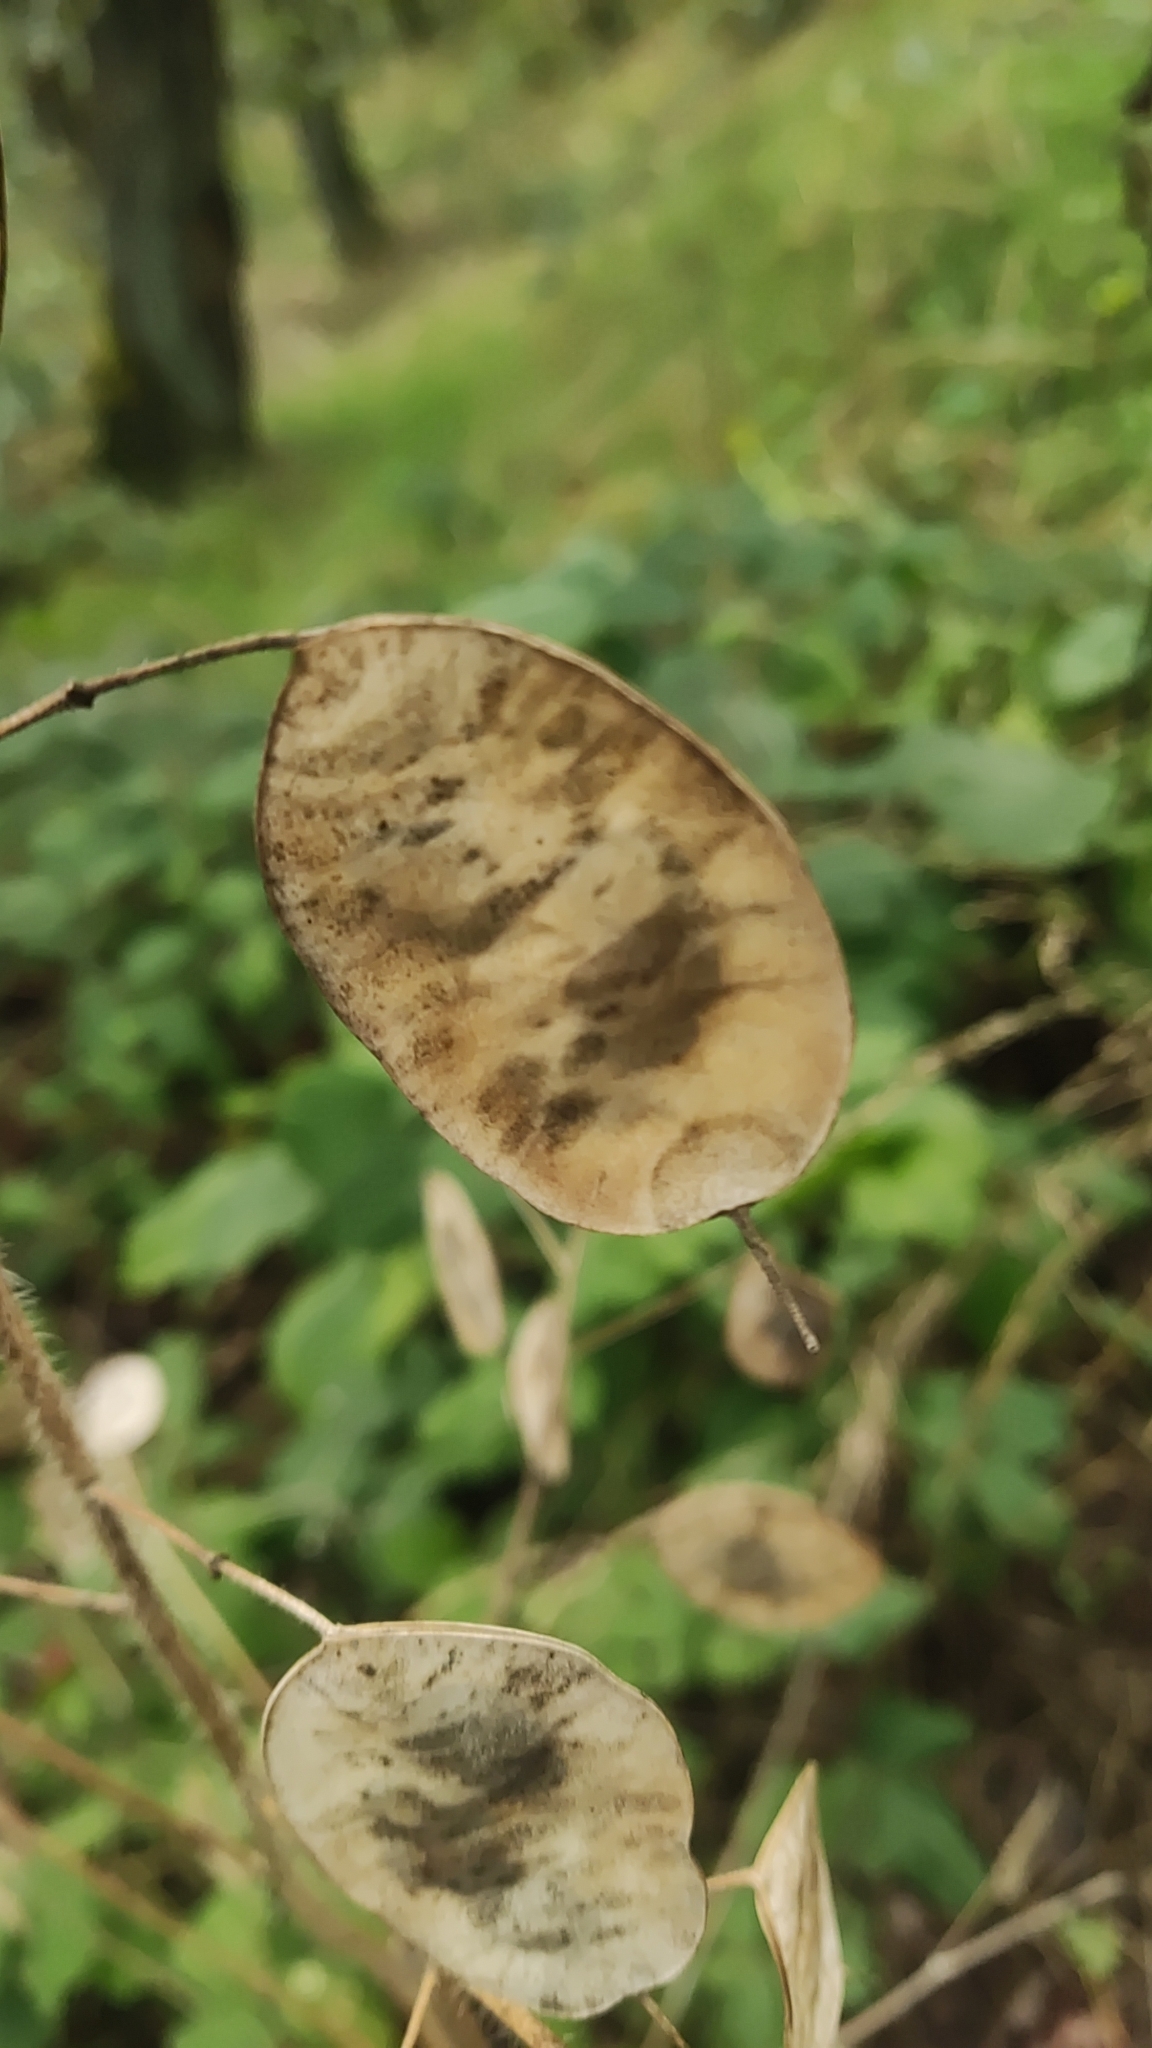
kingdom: Plantae
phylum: Tracheophyta
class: Magnoliopsida
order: Brassicales
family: Brassicaceae
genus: Lunaria
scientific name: Lunaria annua
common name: Honesty
